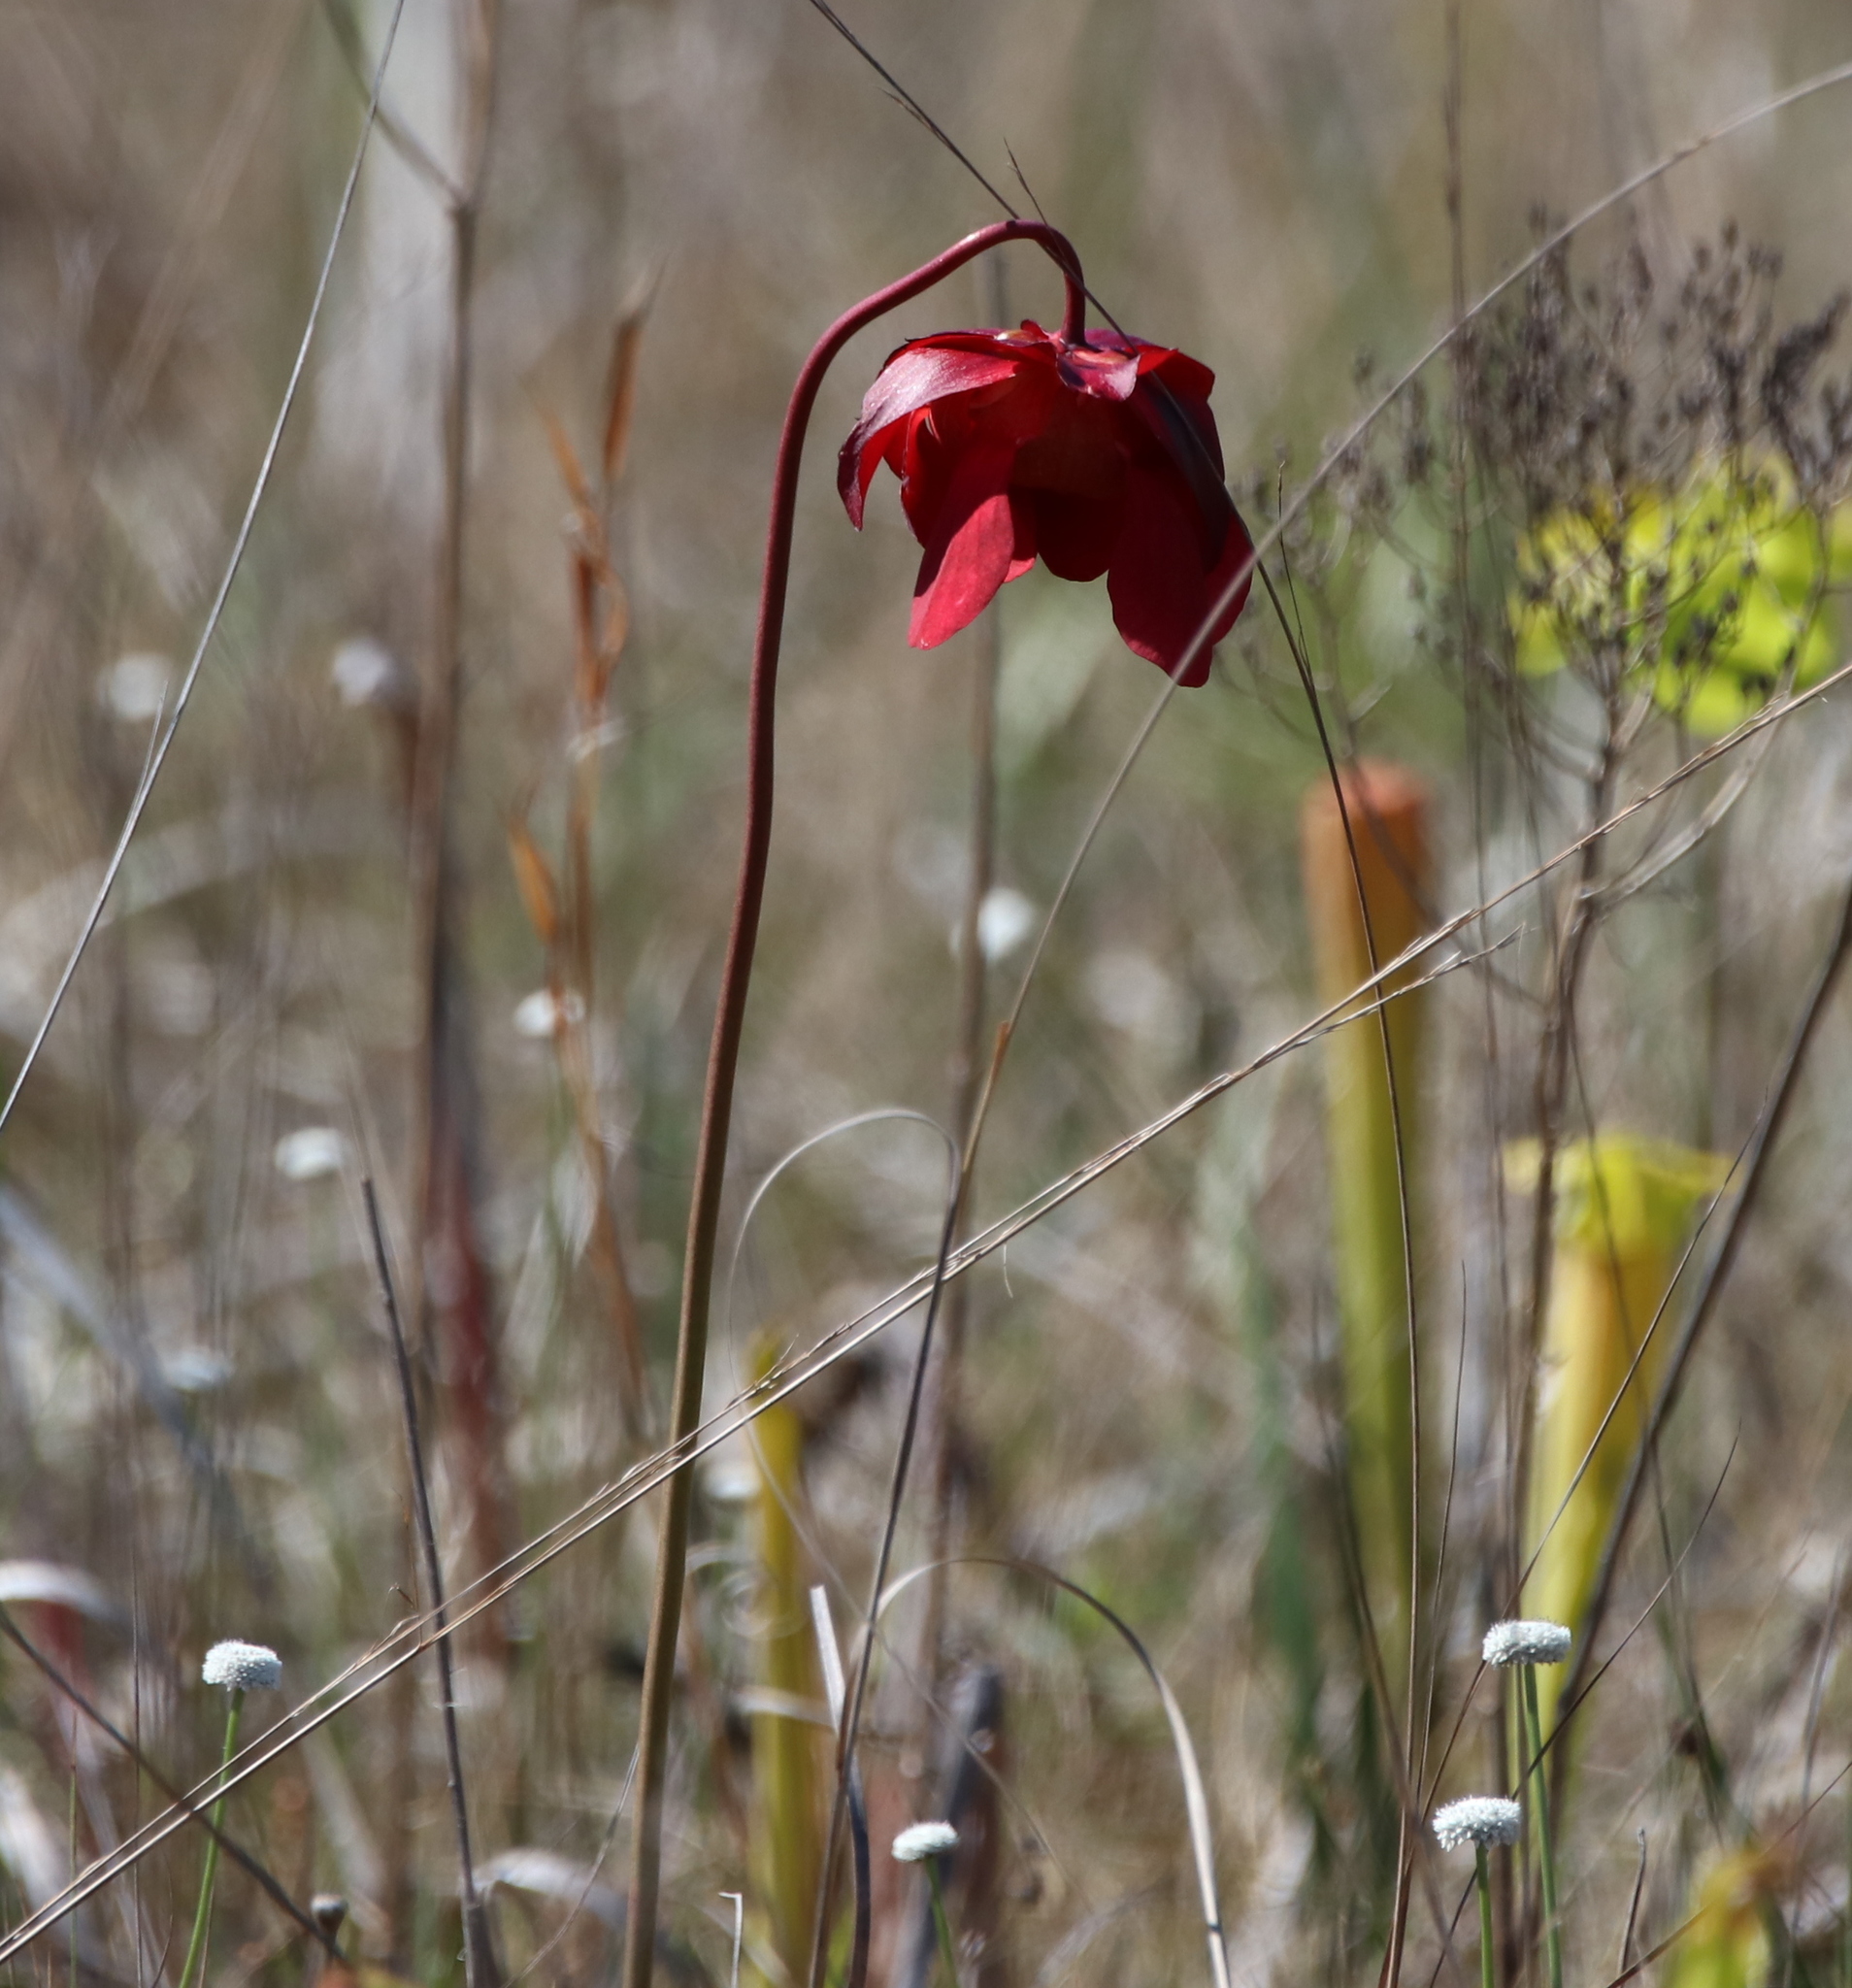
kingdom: Plantae
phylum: Tracheophyta
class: Magnoliopsida
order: Ericales
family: Sarraceniaceae
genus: Sarracenia
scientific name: Sarracenia leucophylla
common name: Purple trumpetleaf
